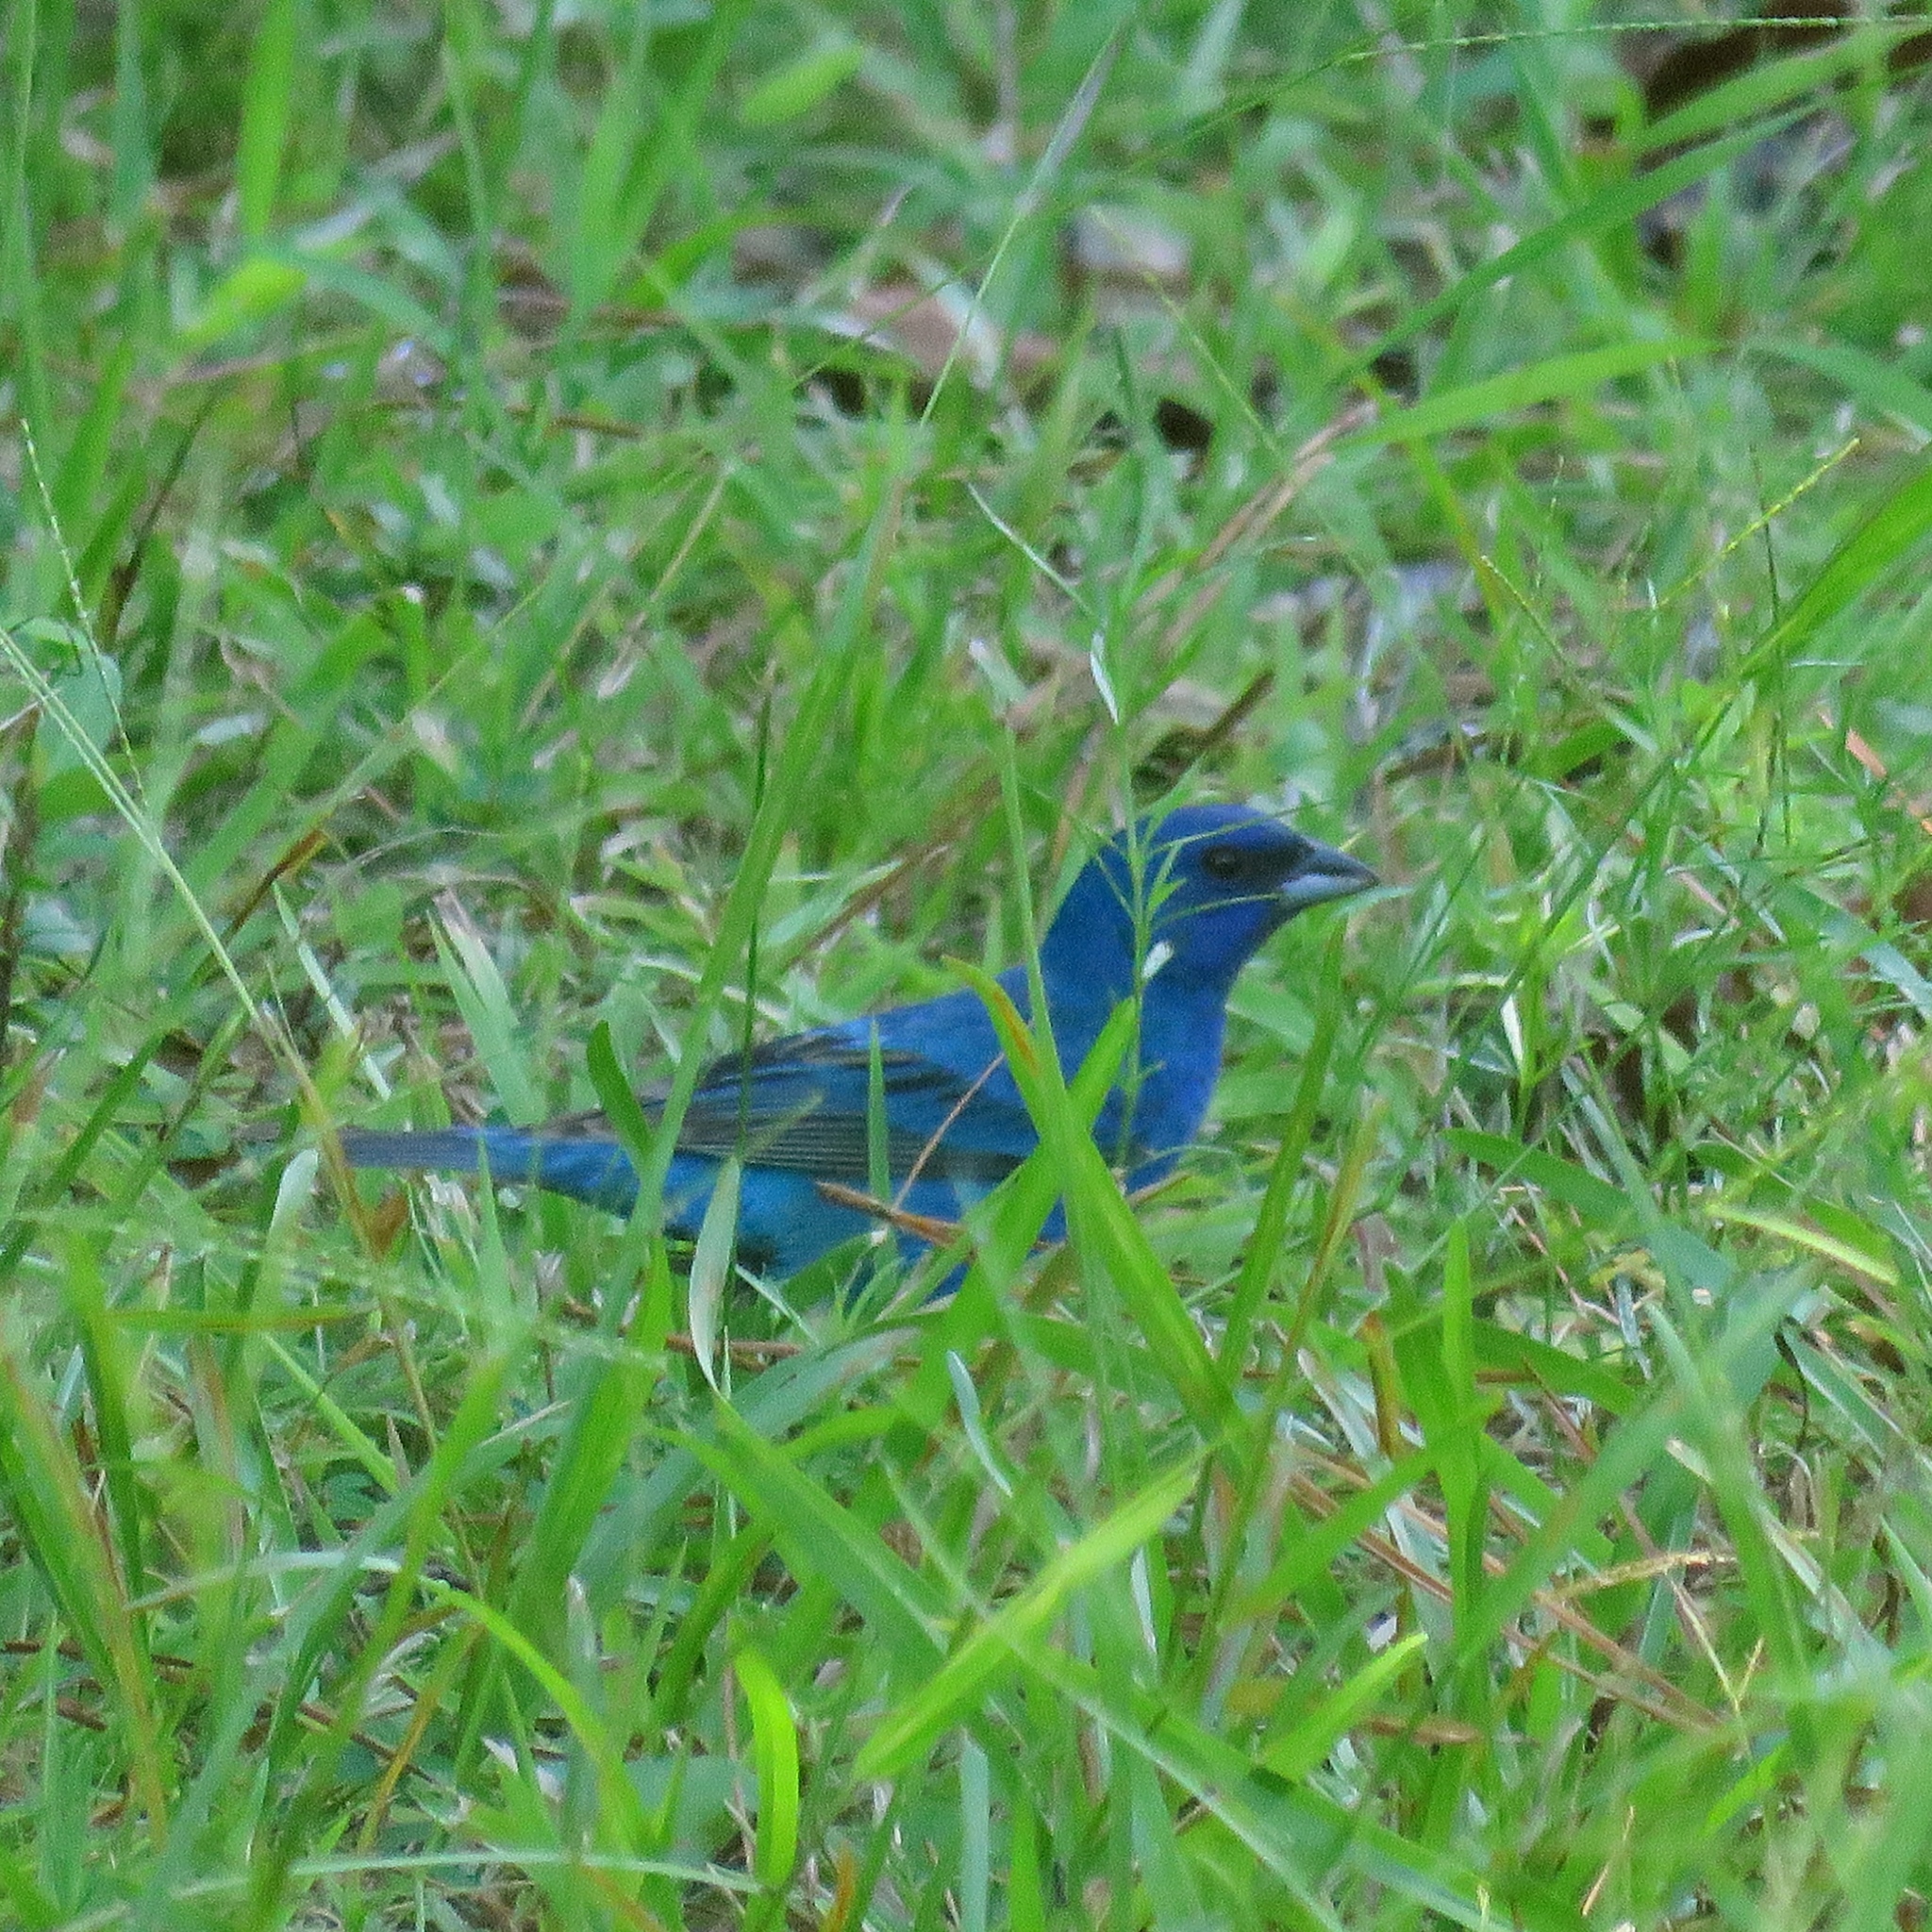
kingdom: Animalia
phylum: Chordata
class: Aves
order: Passeriformes
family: Cardinalidae
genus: Passerina
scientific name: Passerina cyanea
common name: Indigo bunting
